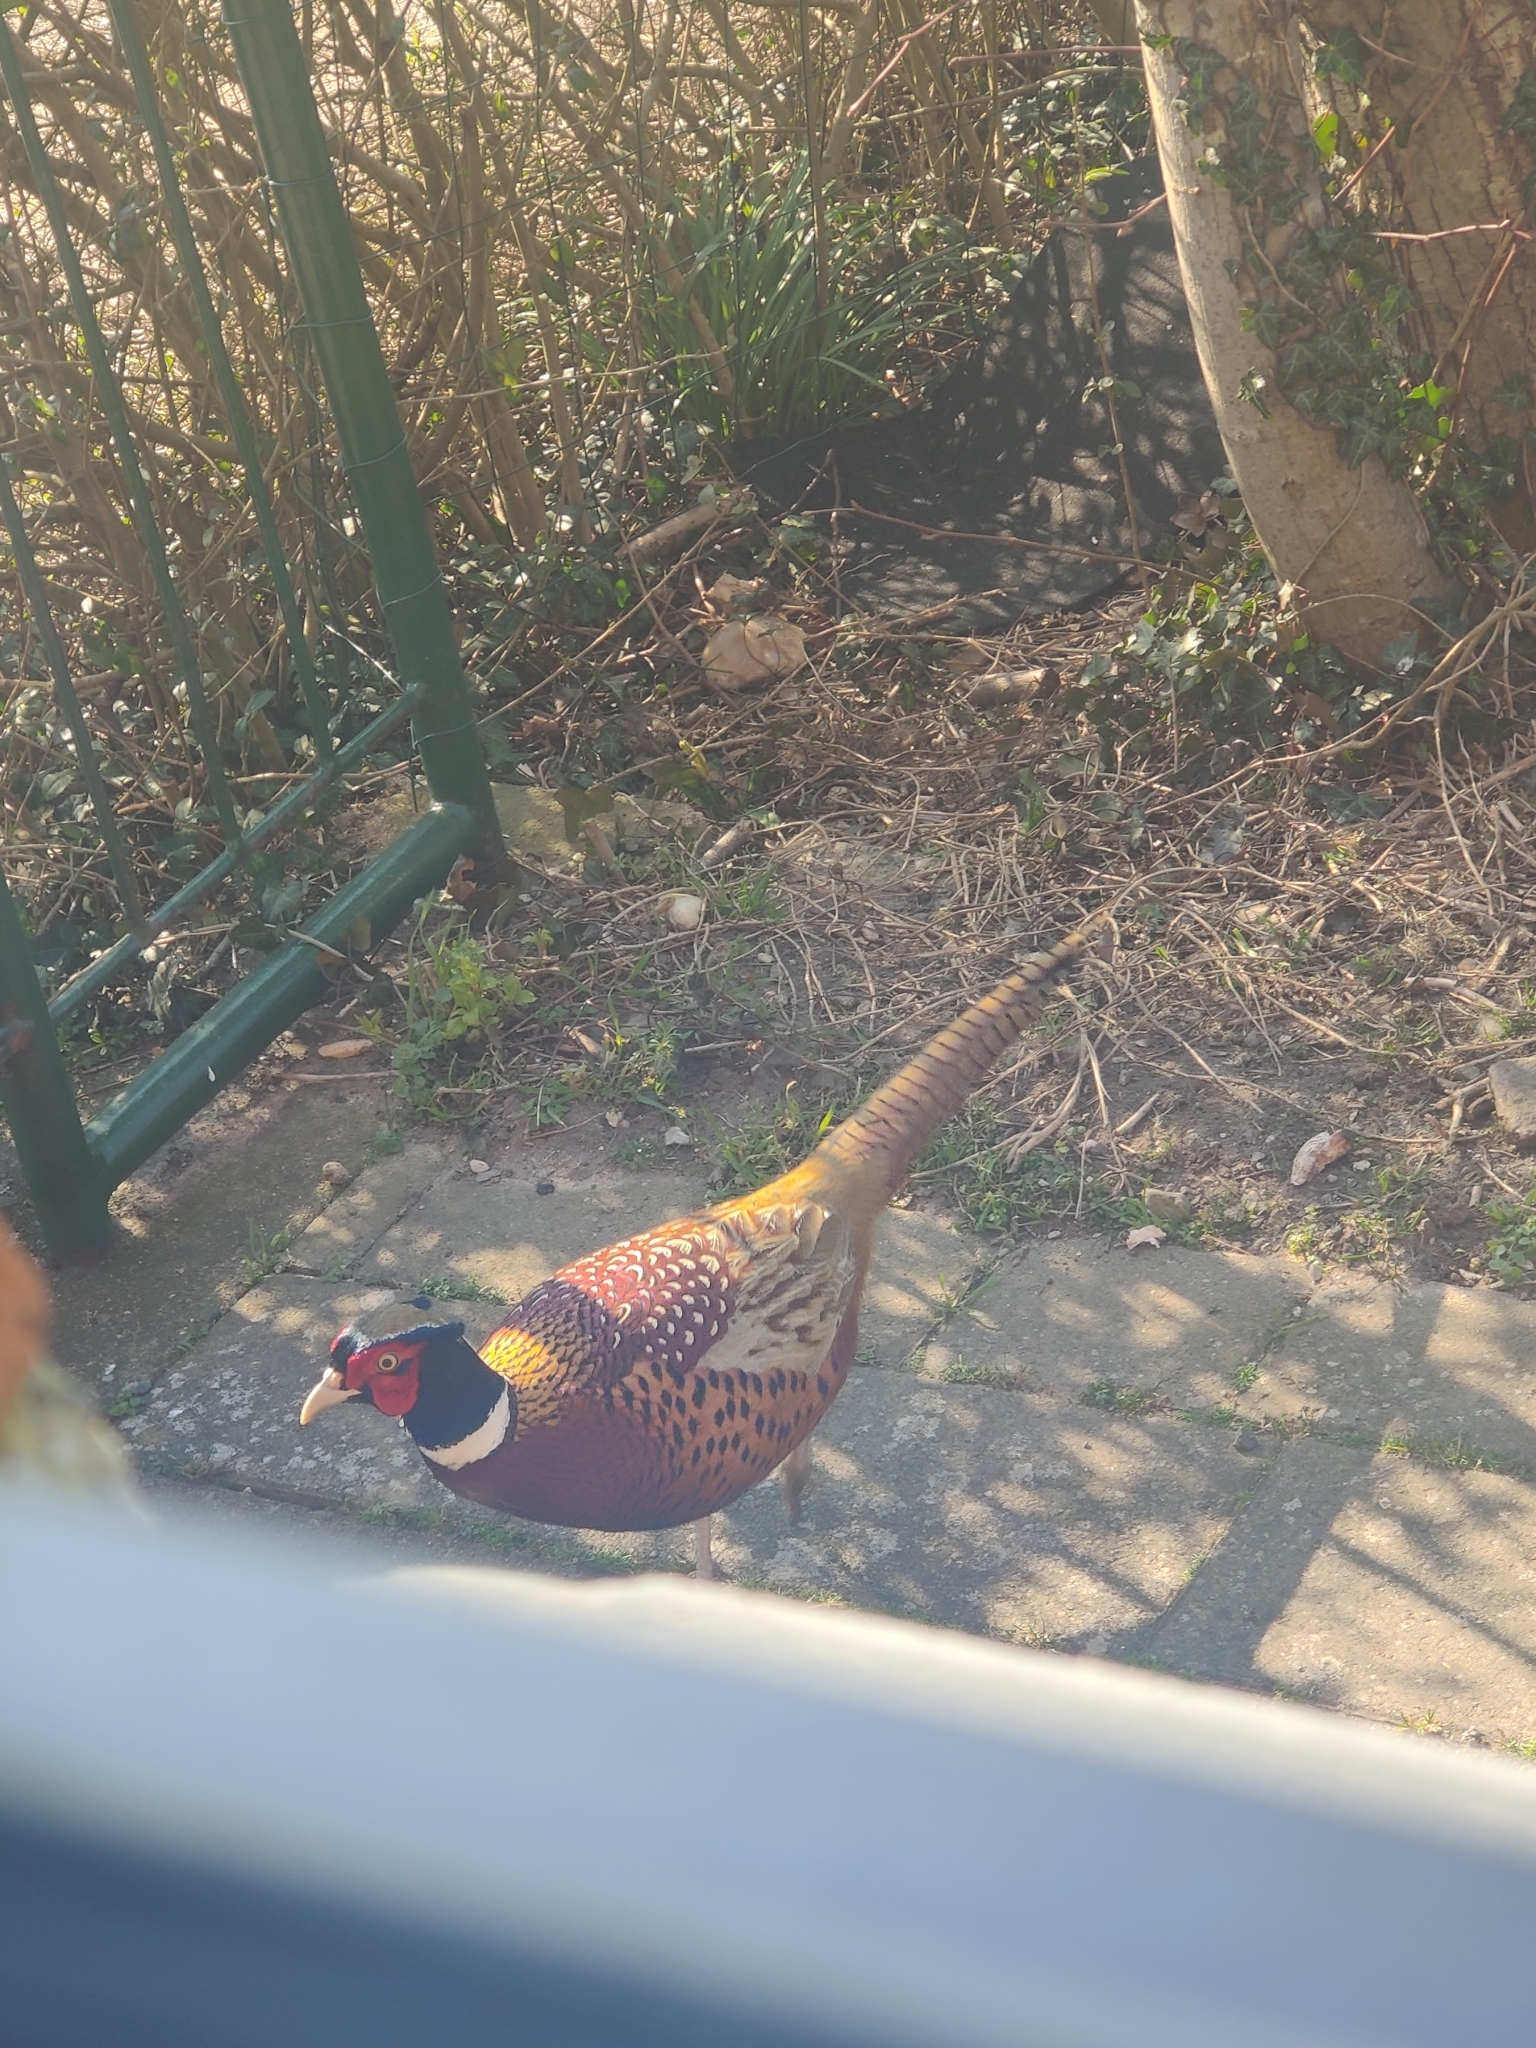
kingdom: Animalia
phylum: Chordata
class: Aves
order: Galliformes
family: Phasianidae
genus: Phasianus
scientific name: Phasianus colchicus
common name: Common pheasant
